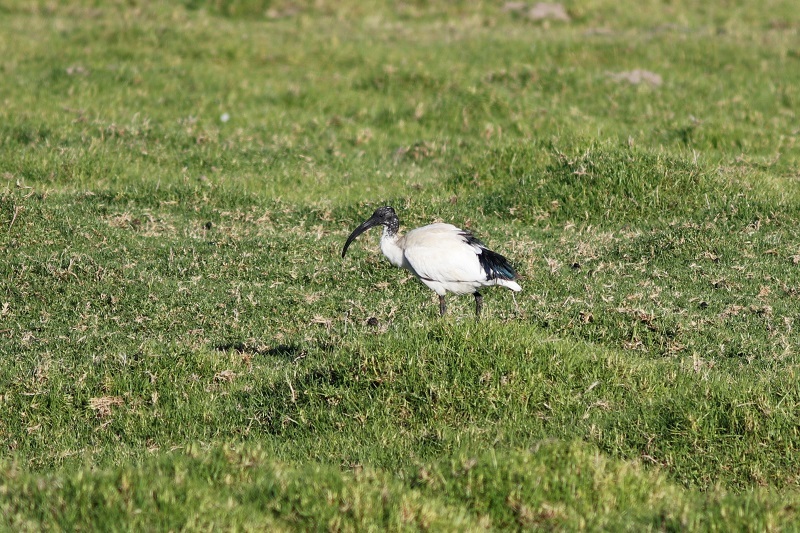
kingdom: Animalia
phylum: Chordata
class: Aves
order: Pelecaniformes
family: Threskiornithidae
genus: Threskiornis
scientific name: Threskiornis aethiopicus
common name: Sacred ibis
